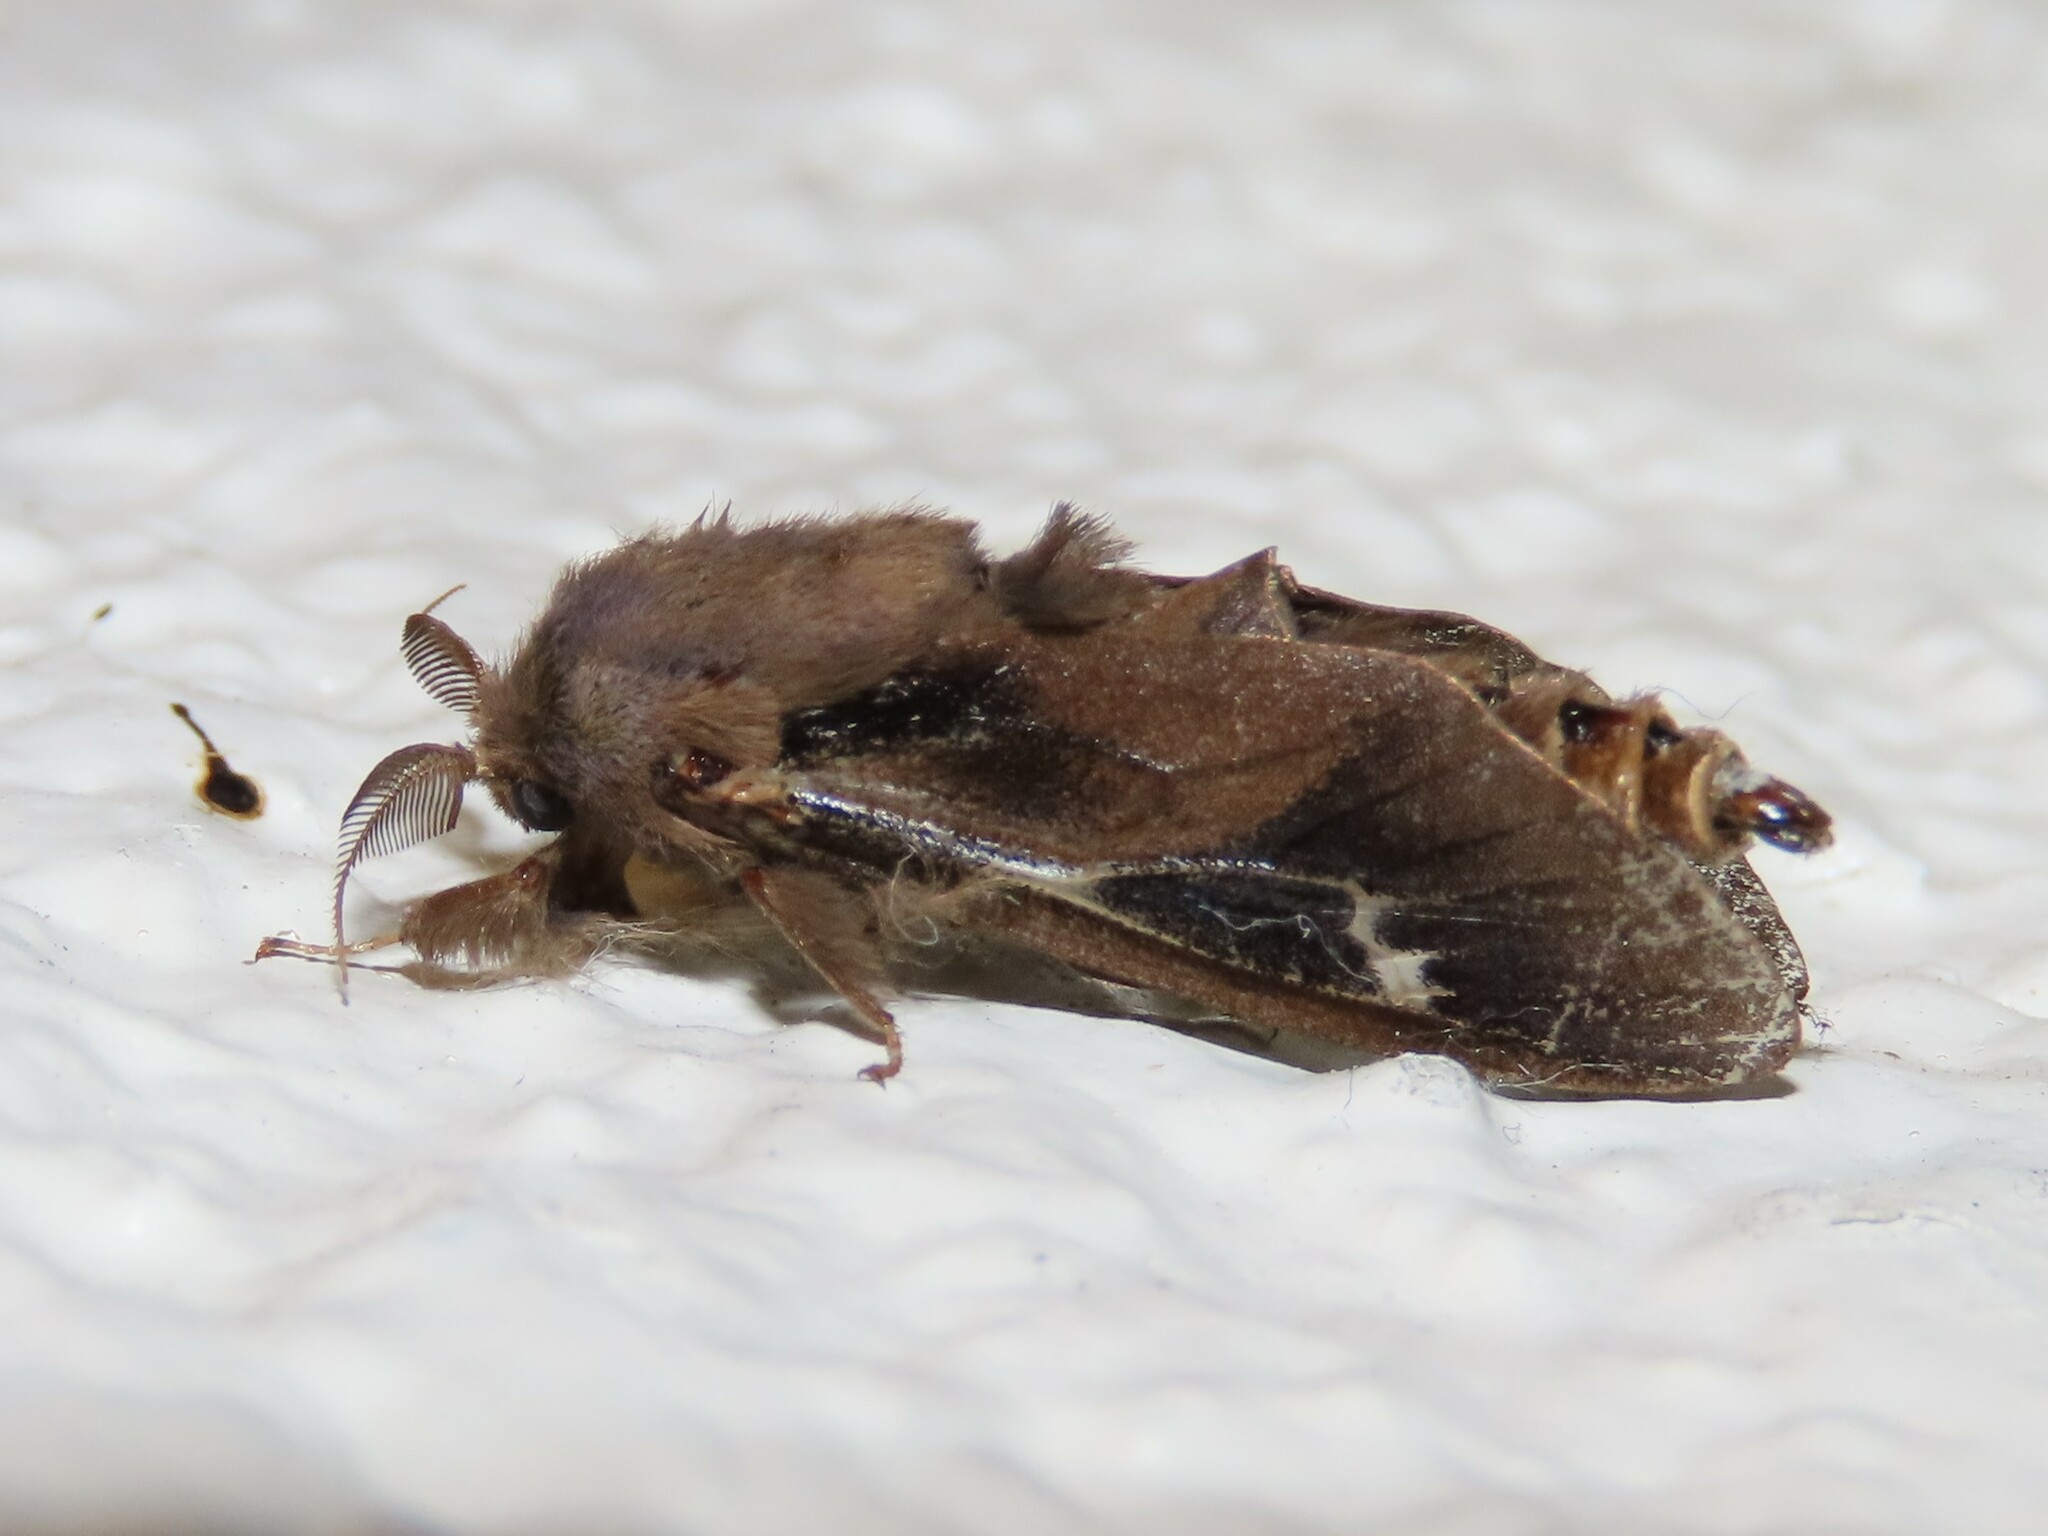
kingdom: Animalia
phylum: Arthropoda
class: Insecta
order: Lepidoptera
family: Psychidae
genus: Oiketicus
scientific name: Oiketicus
